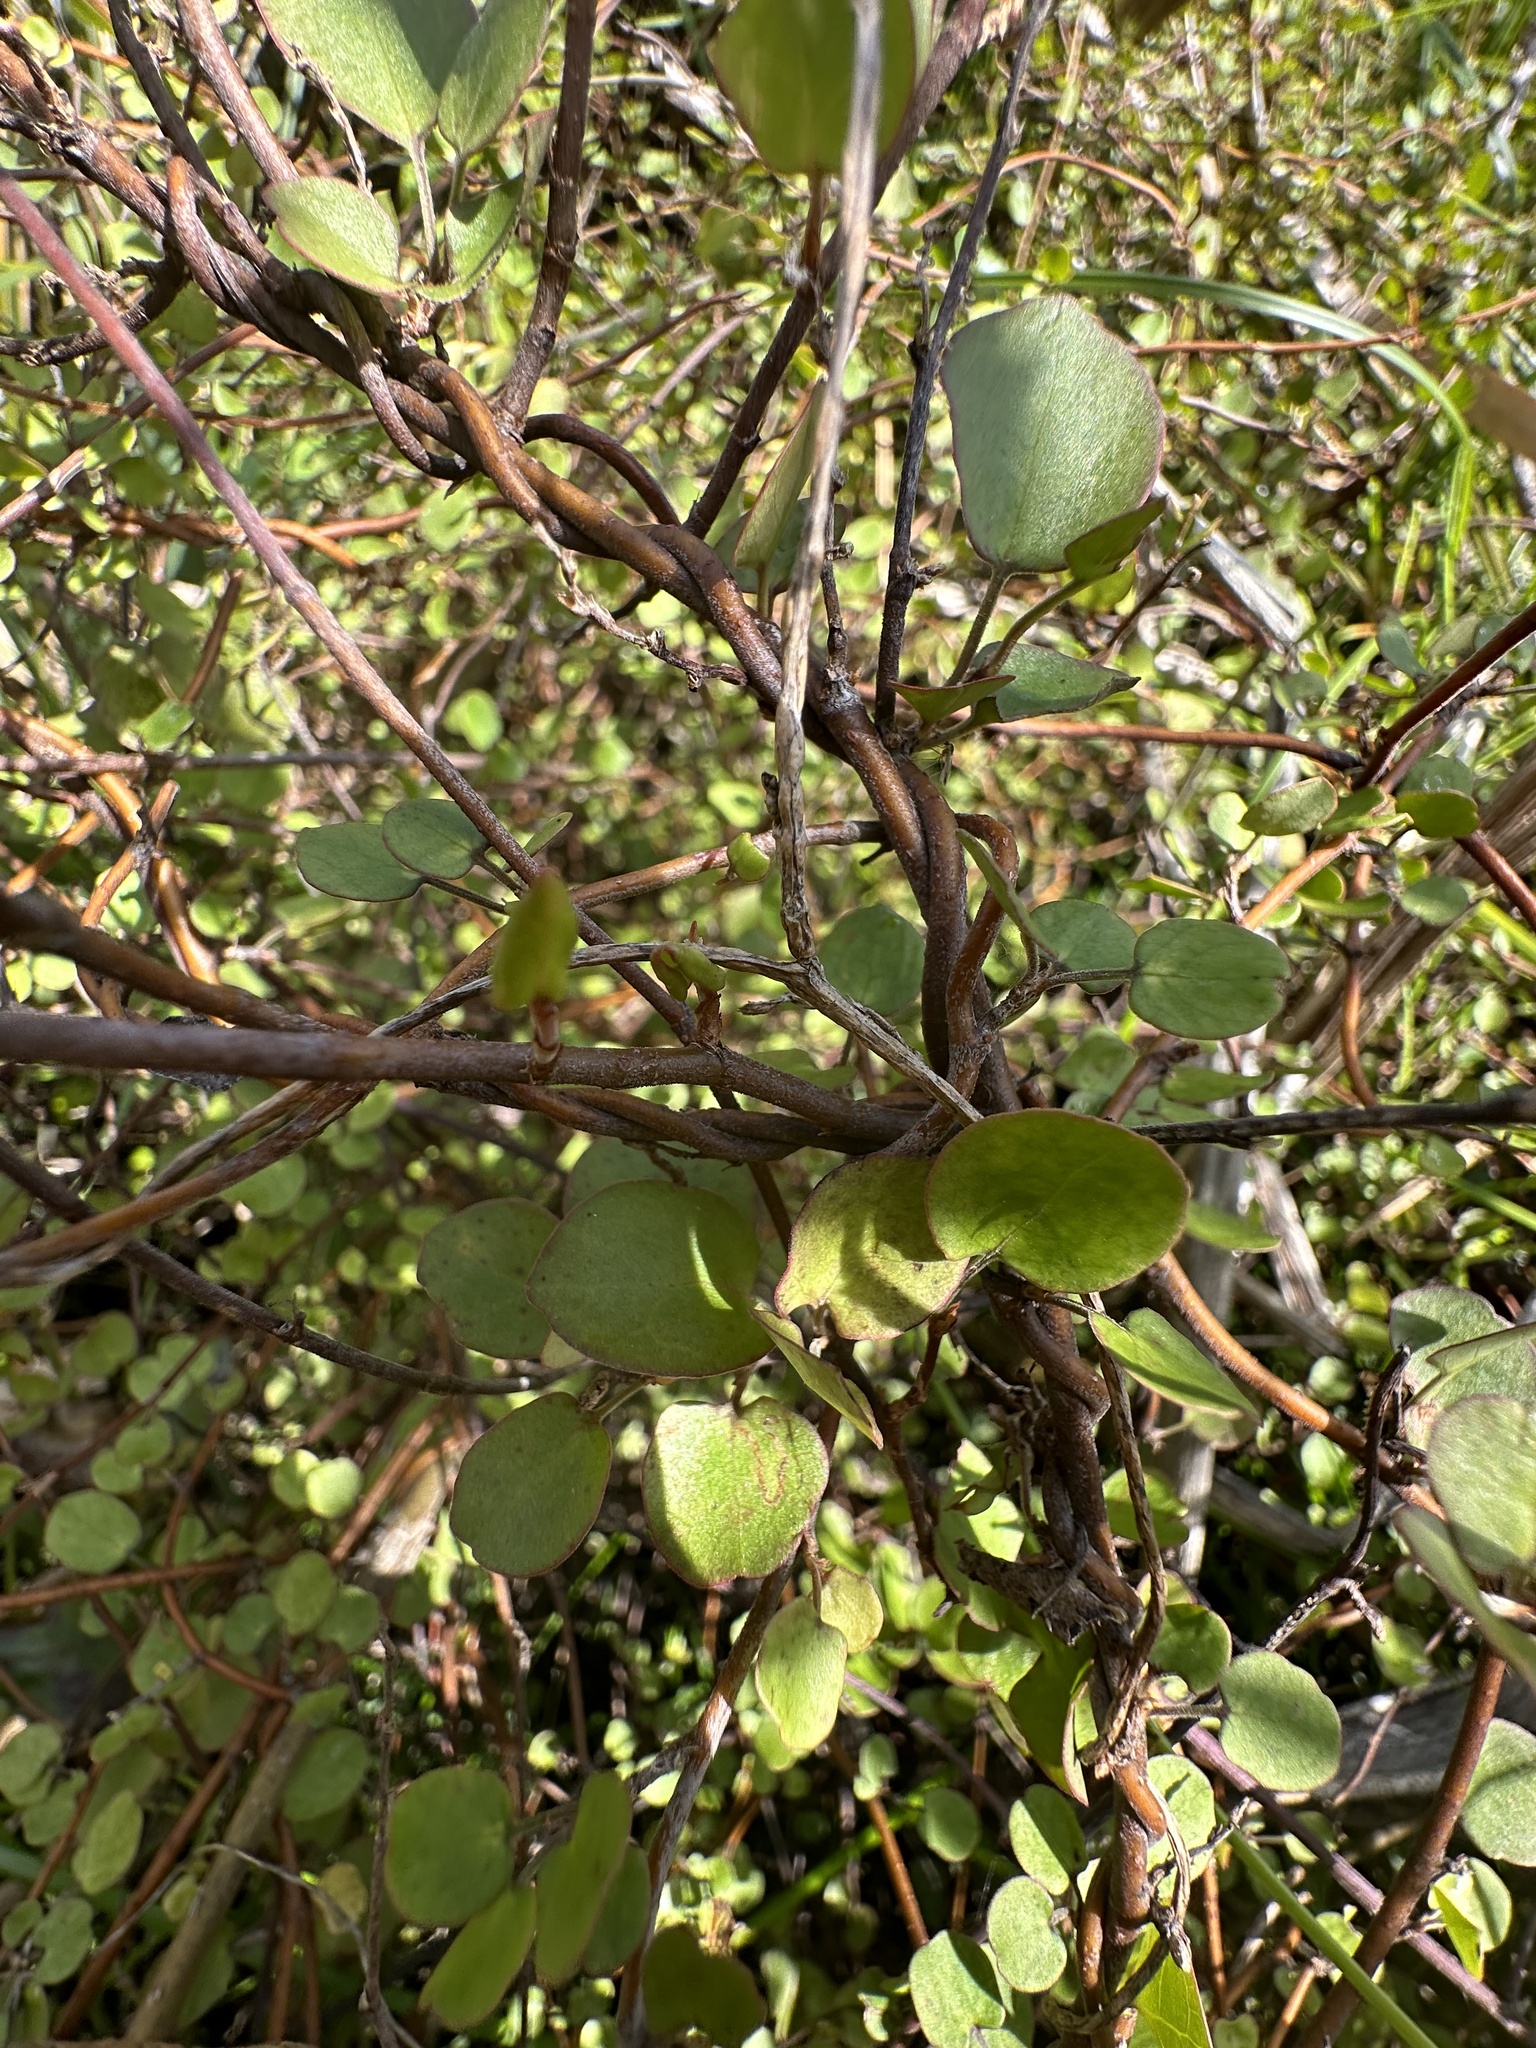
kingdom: Plantae
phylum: Tracheophyta
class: Magnoliopsida
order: Caryophyllales
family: Polygonaceae
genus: Muehlenbeckia
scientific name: Muehlenbeckia complexa
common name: Wireplant
